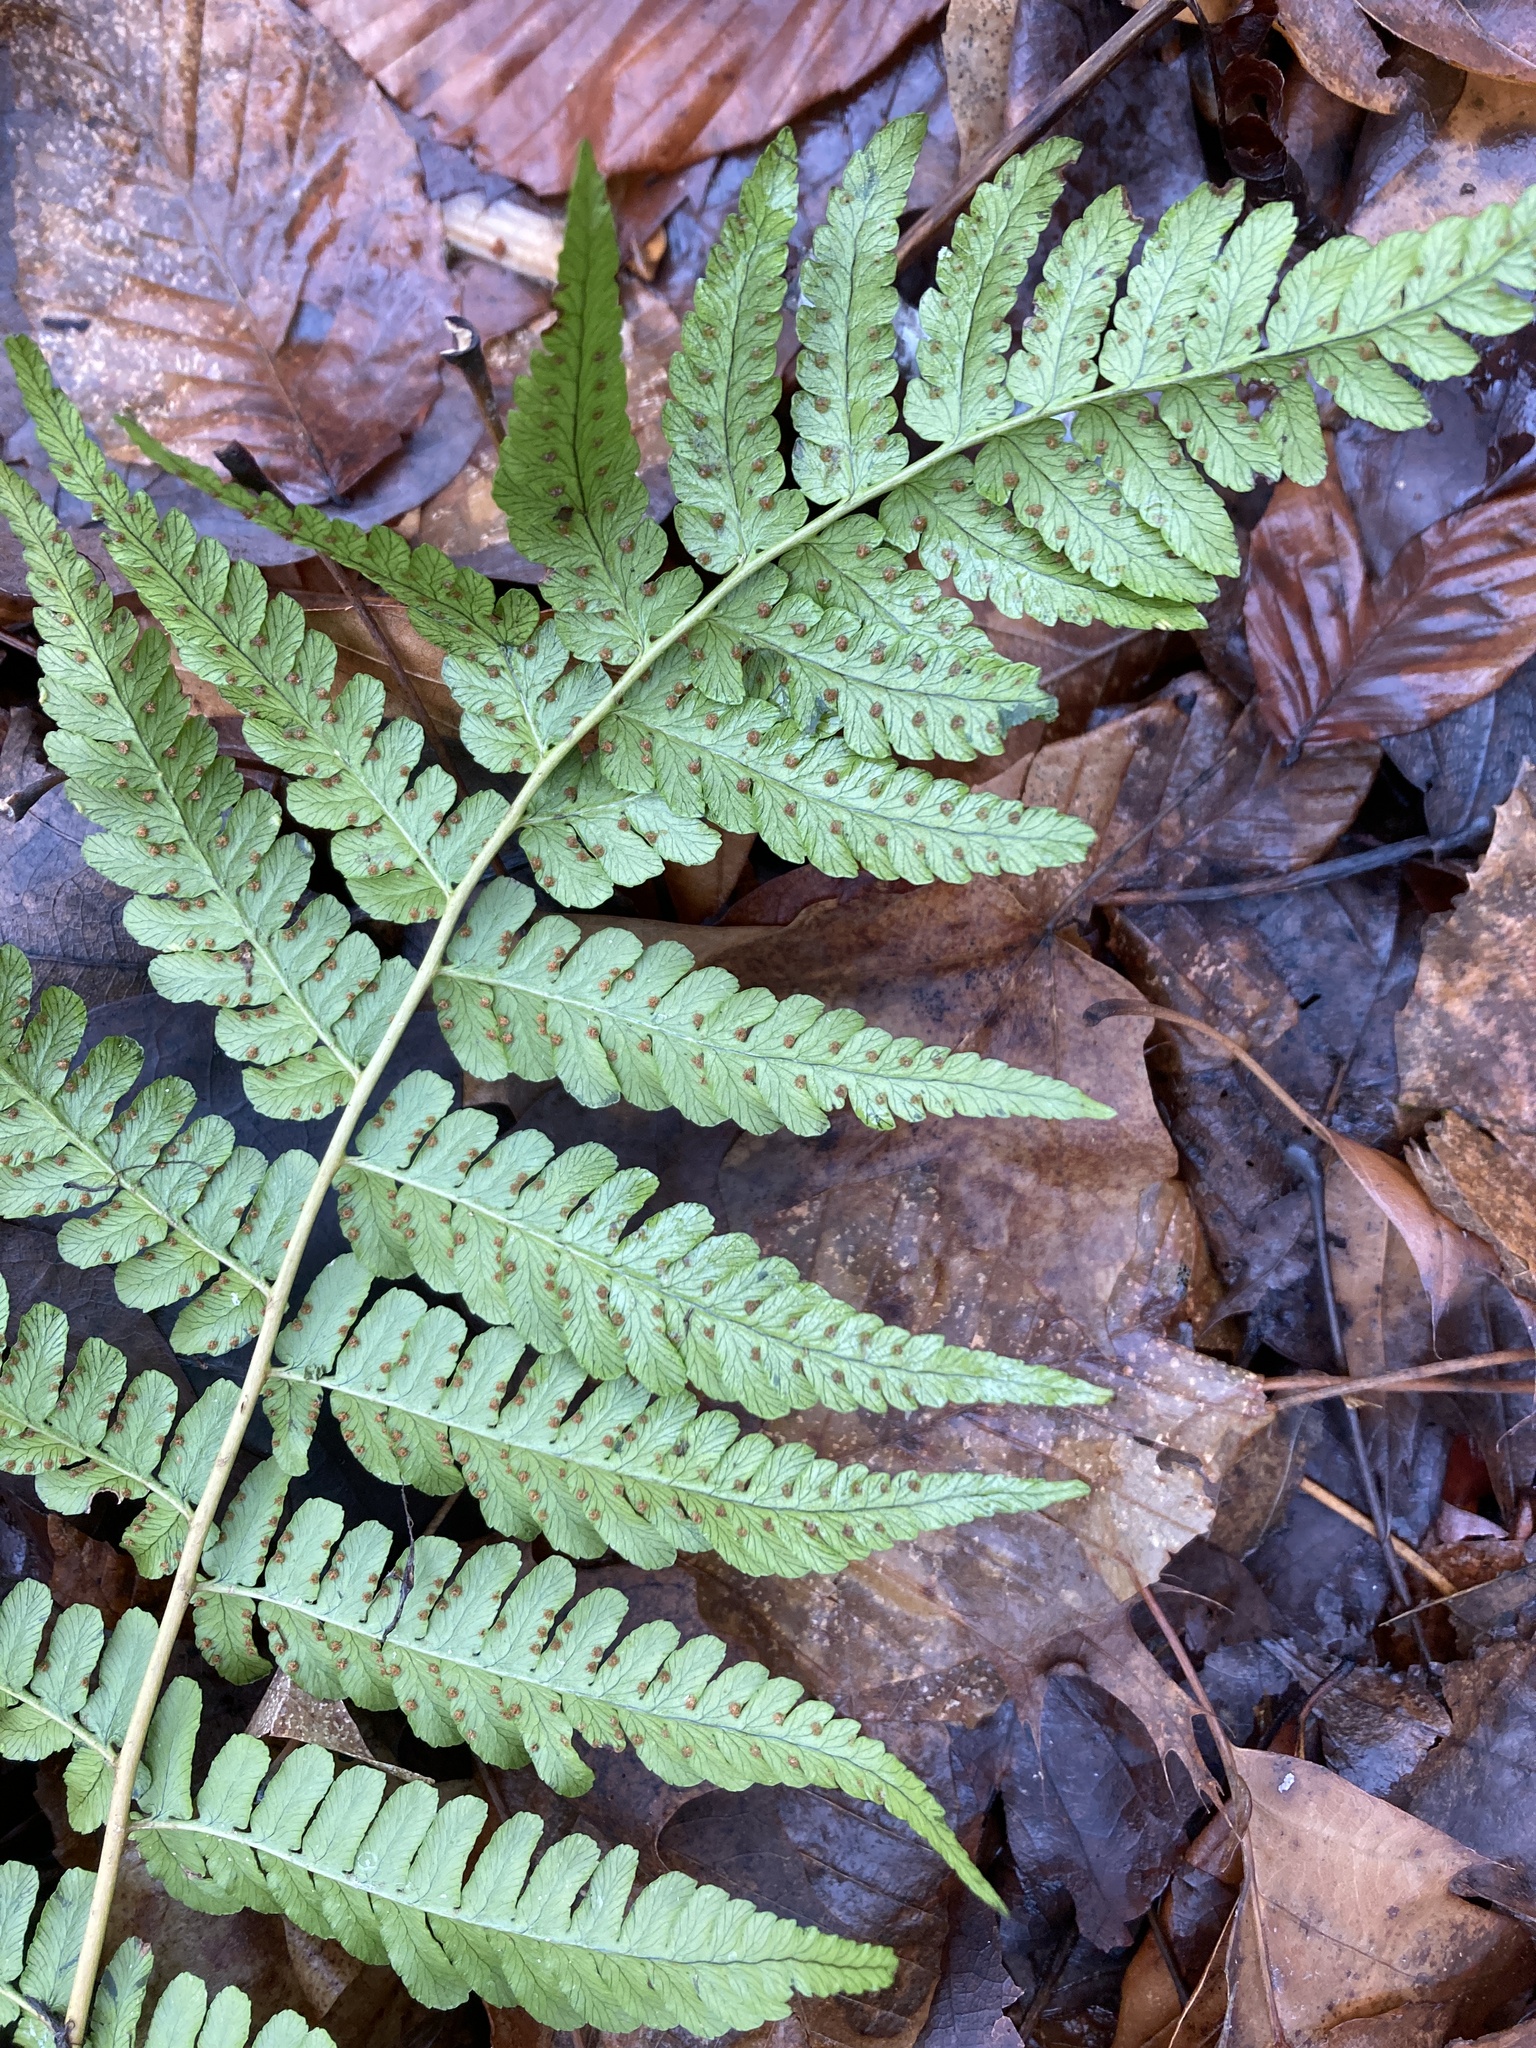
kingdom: Plantae
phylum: Tracheophyta
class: Polypodiopsida
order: Polypodiales
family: Dryopteridaceae
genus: Dryopteris
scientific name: Dryopteris marginalis
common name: Marginal wood fern
